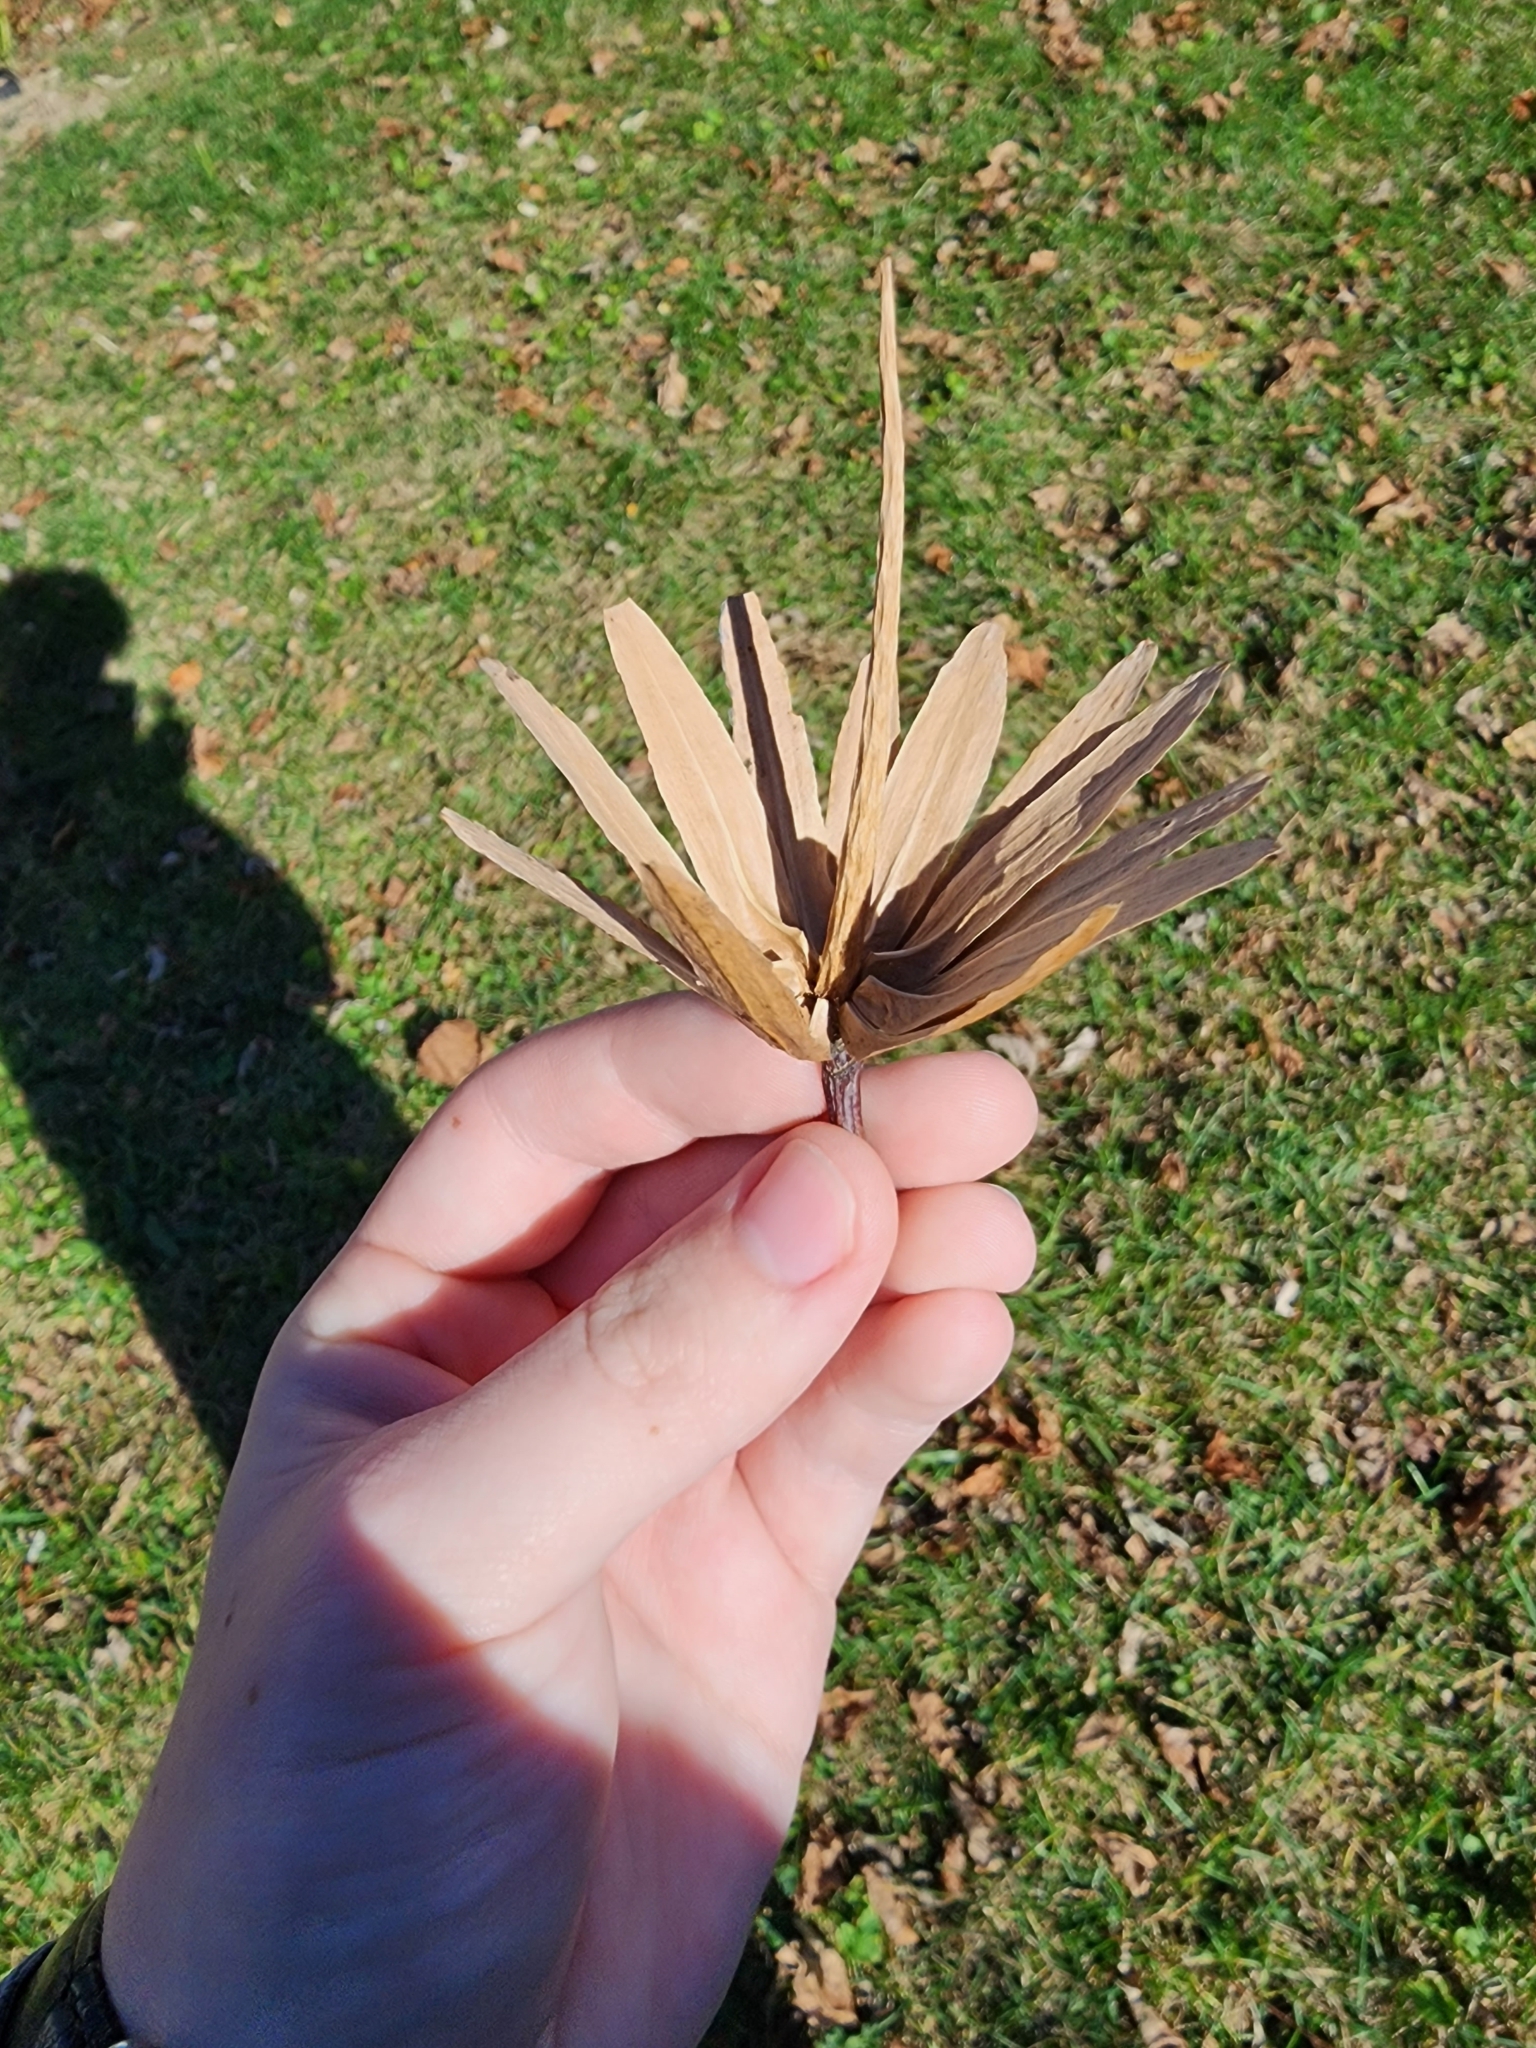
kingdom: Plantae
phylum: Tracheophyta
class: Magnoliopsida
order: Magnoliales
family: Magnoliaceae
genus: Liriodendron
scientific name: Liriodendron tulipifera
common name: Tulip tree
